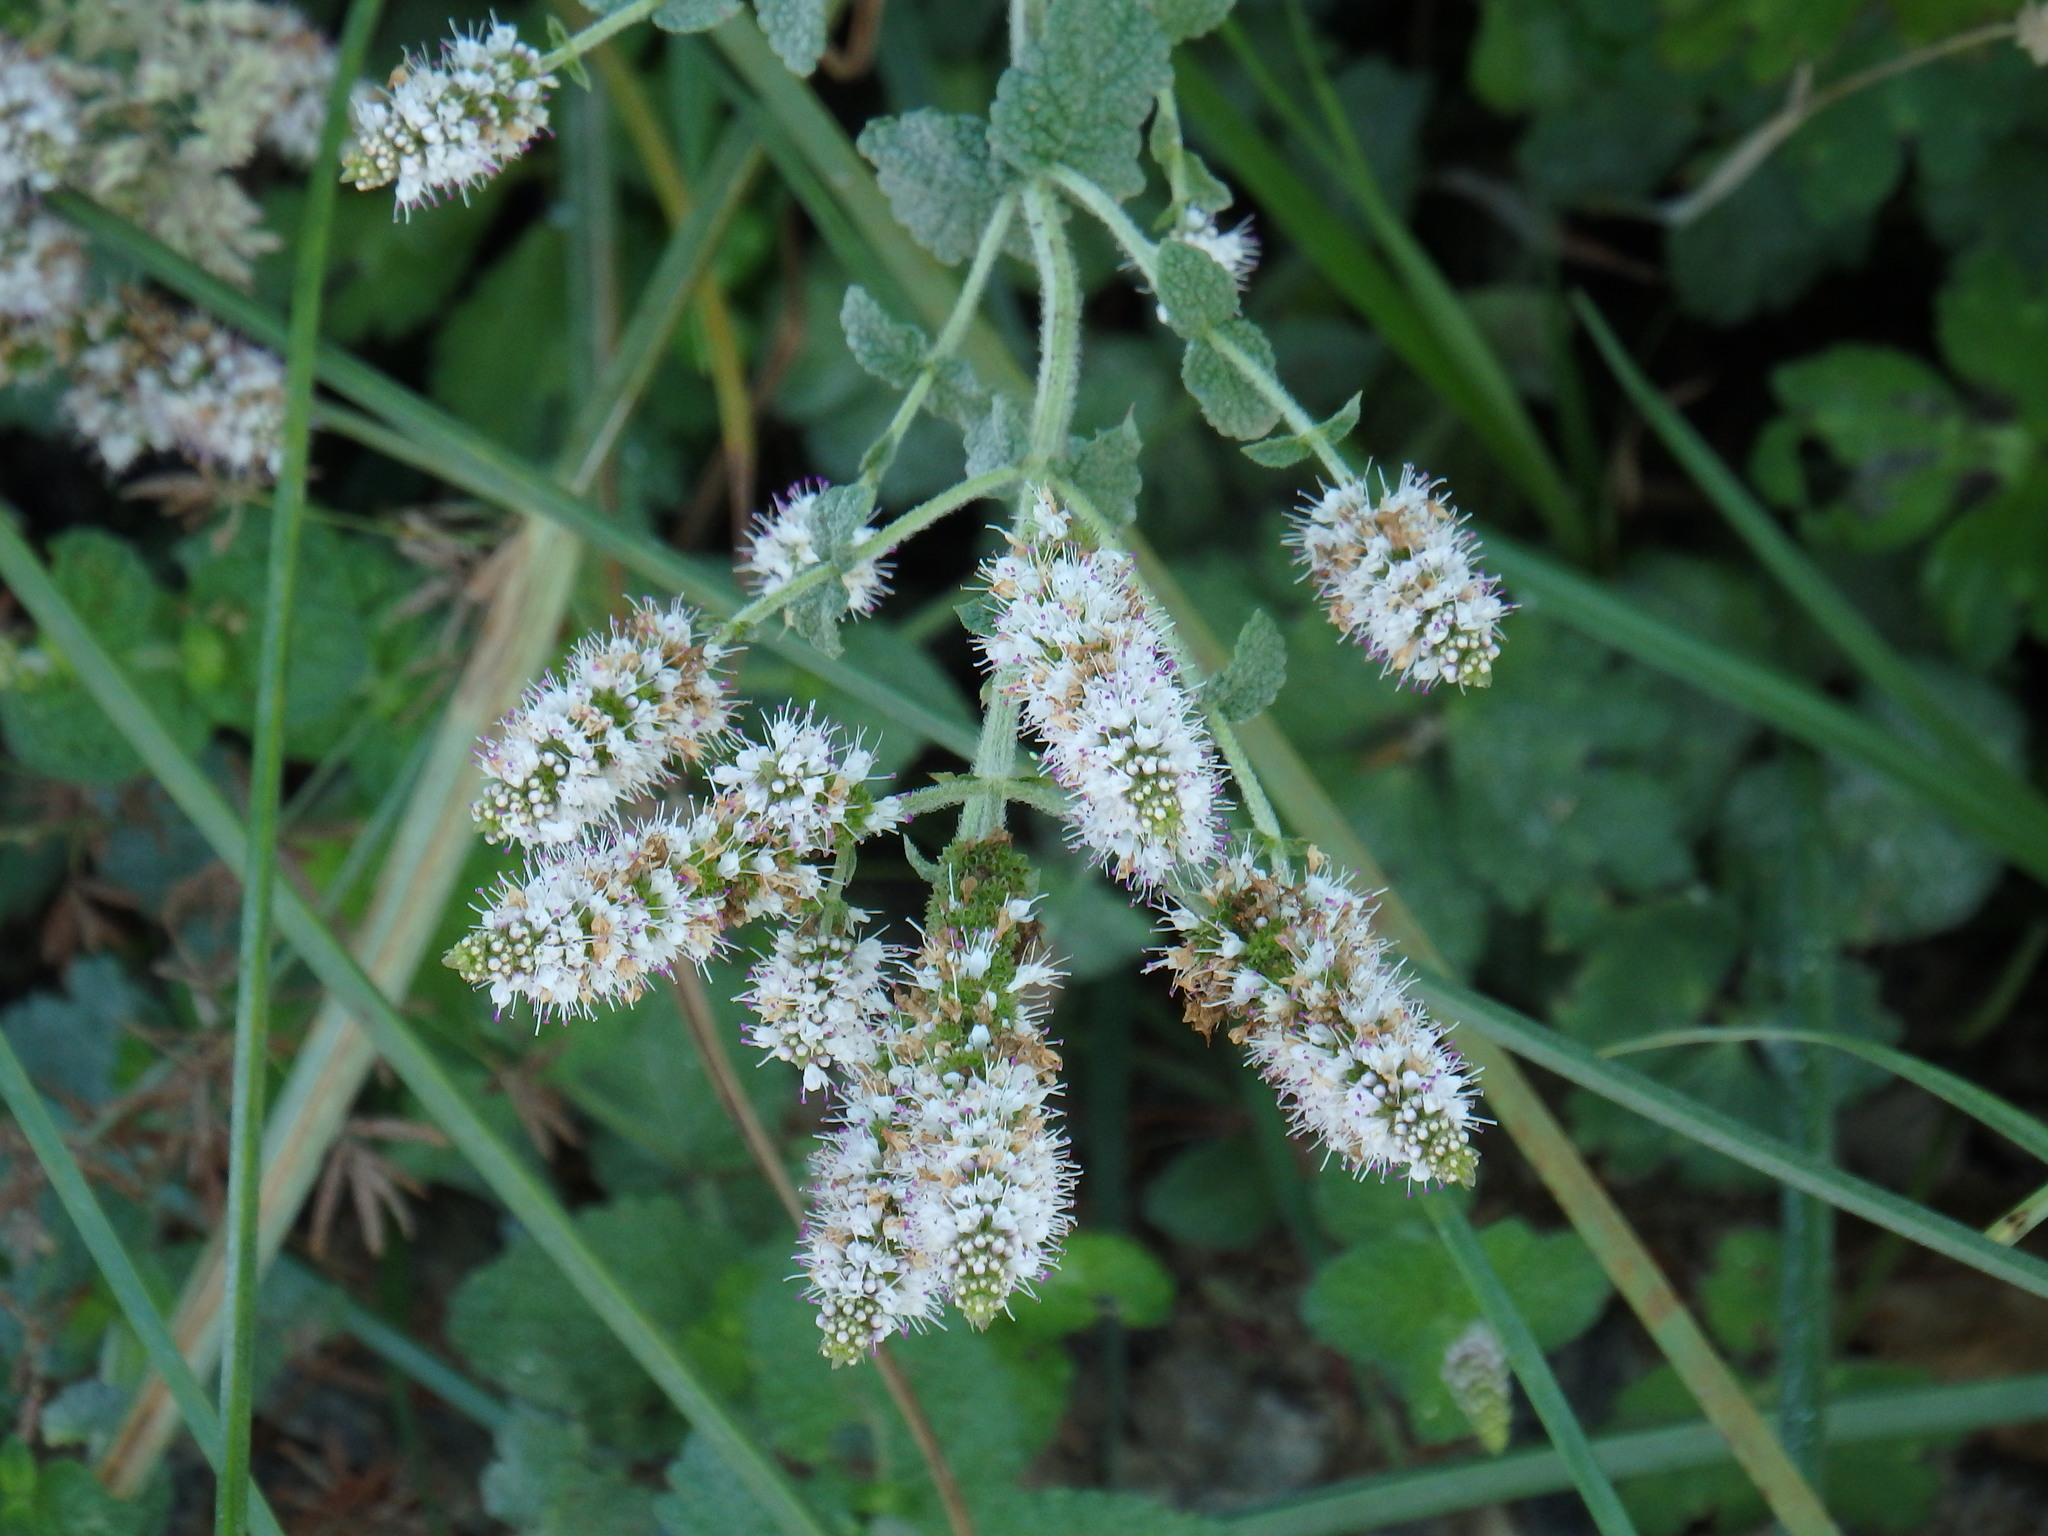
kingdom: Plantae
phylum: Tracheophyta
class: Magnoliopsida
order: Lamiales
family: Lamiaceae
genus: Mentha
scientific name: Mentha suaveolens
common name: Apple mint
